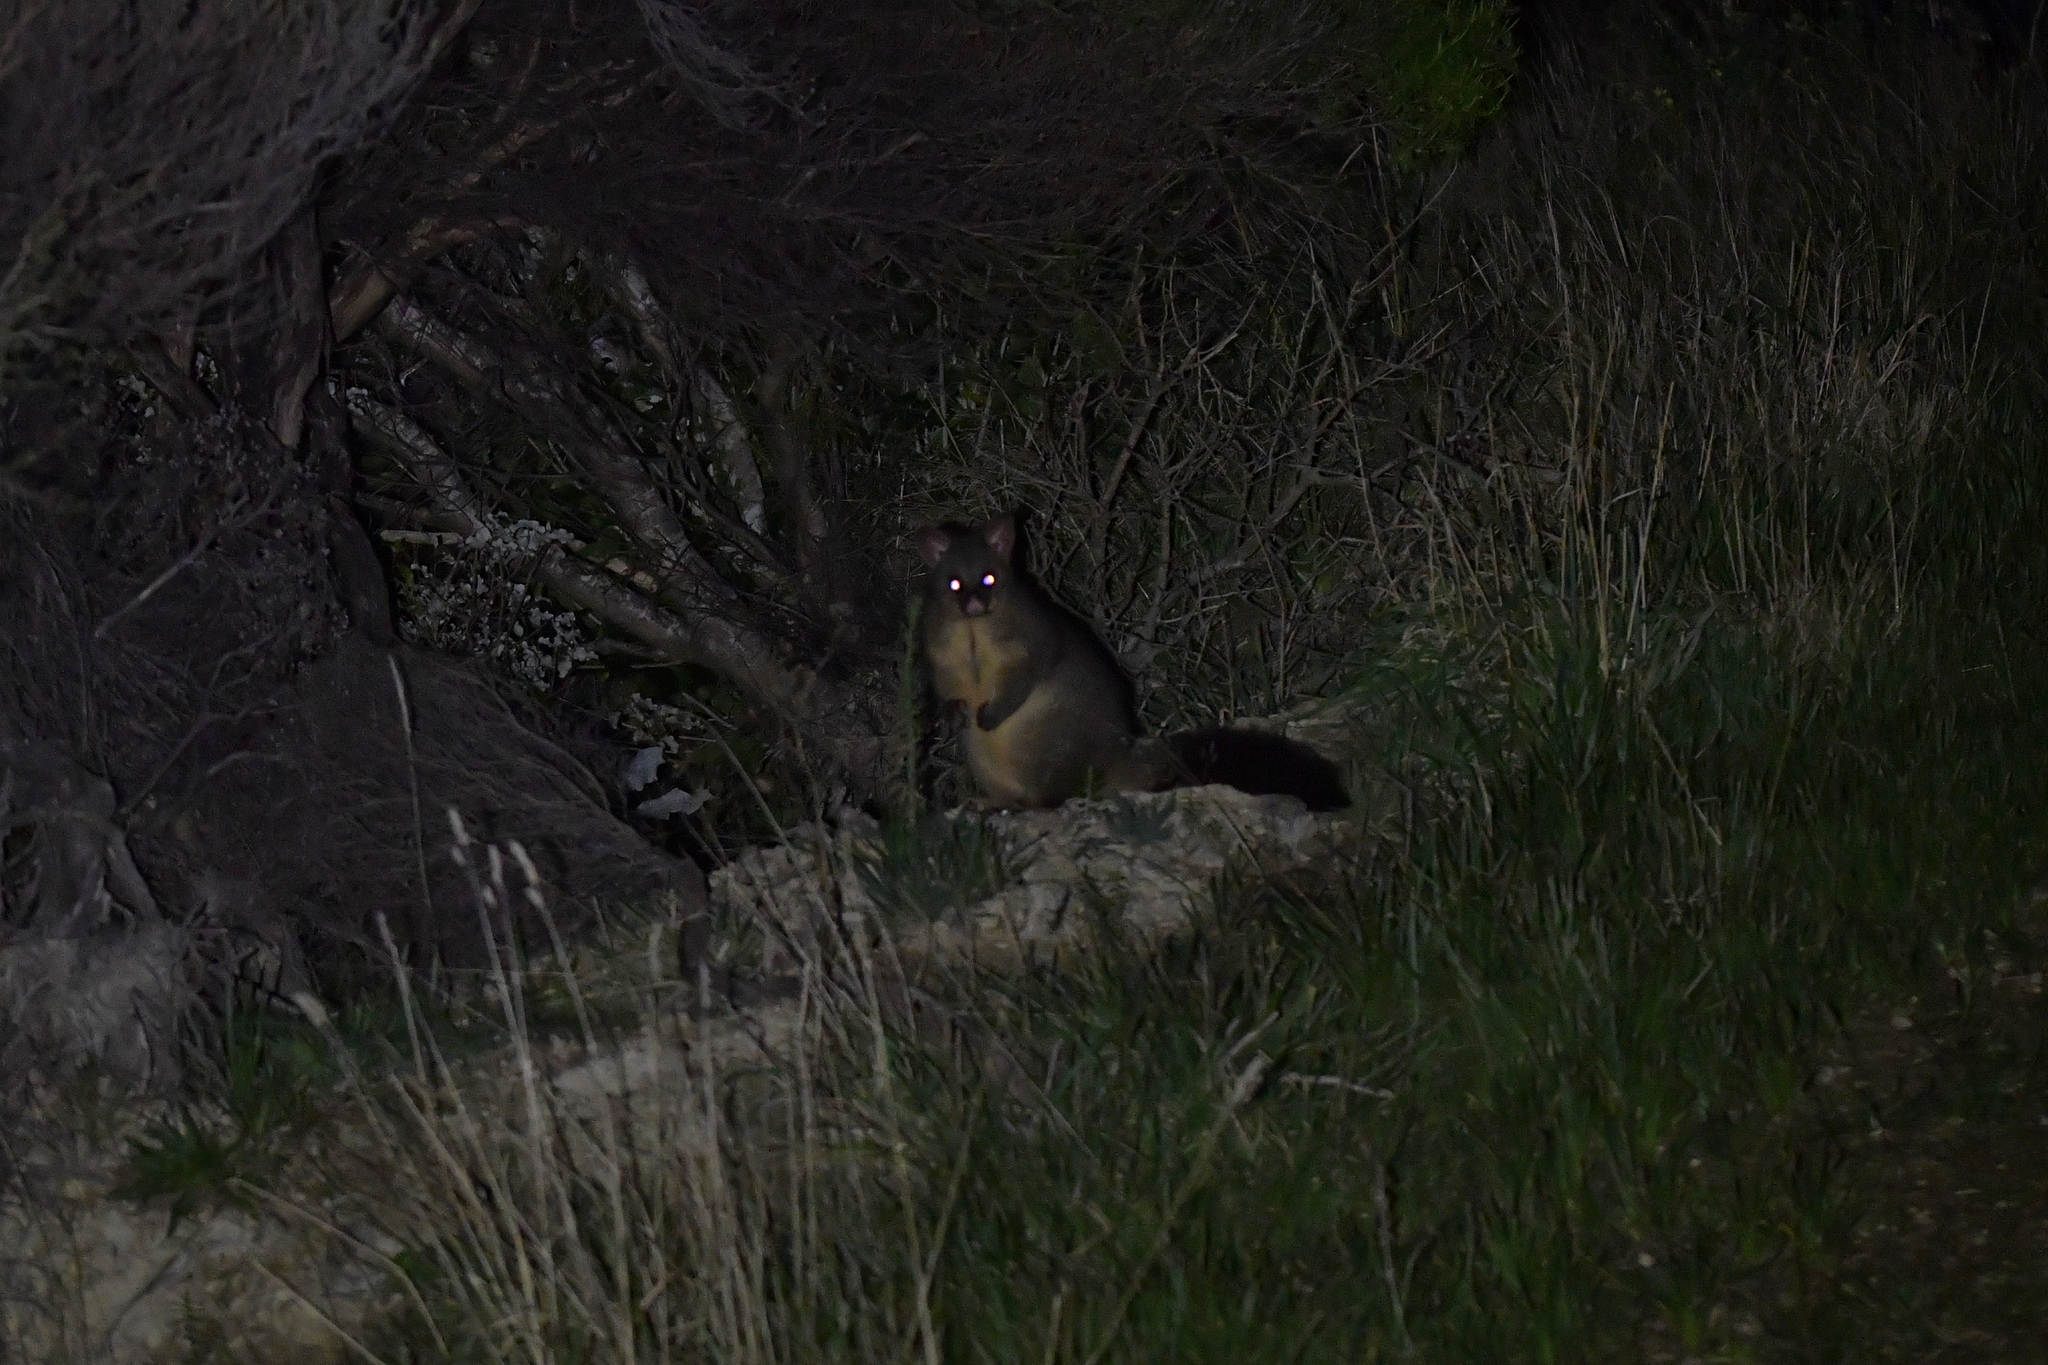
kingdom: Animalia
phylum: Chordata
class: Mammalia
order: Diprotodontia
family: Phalangeridae
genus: Trichosurus
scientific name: Trichosurus vulpecula
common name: Common brushtail
